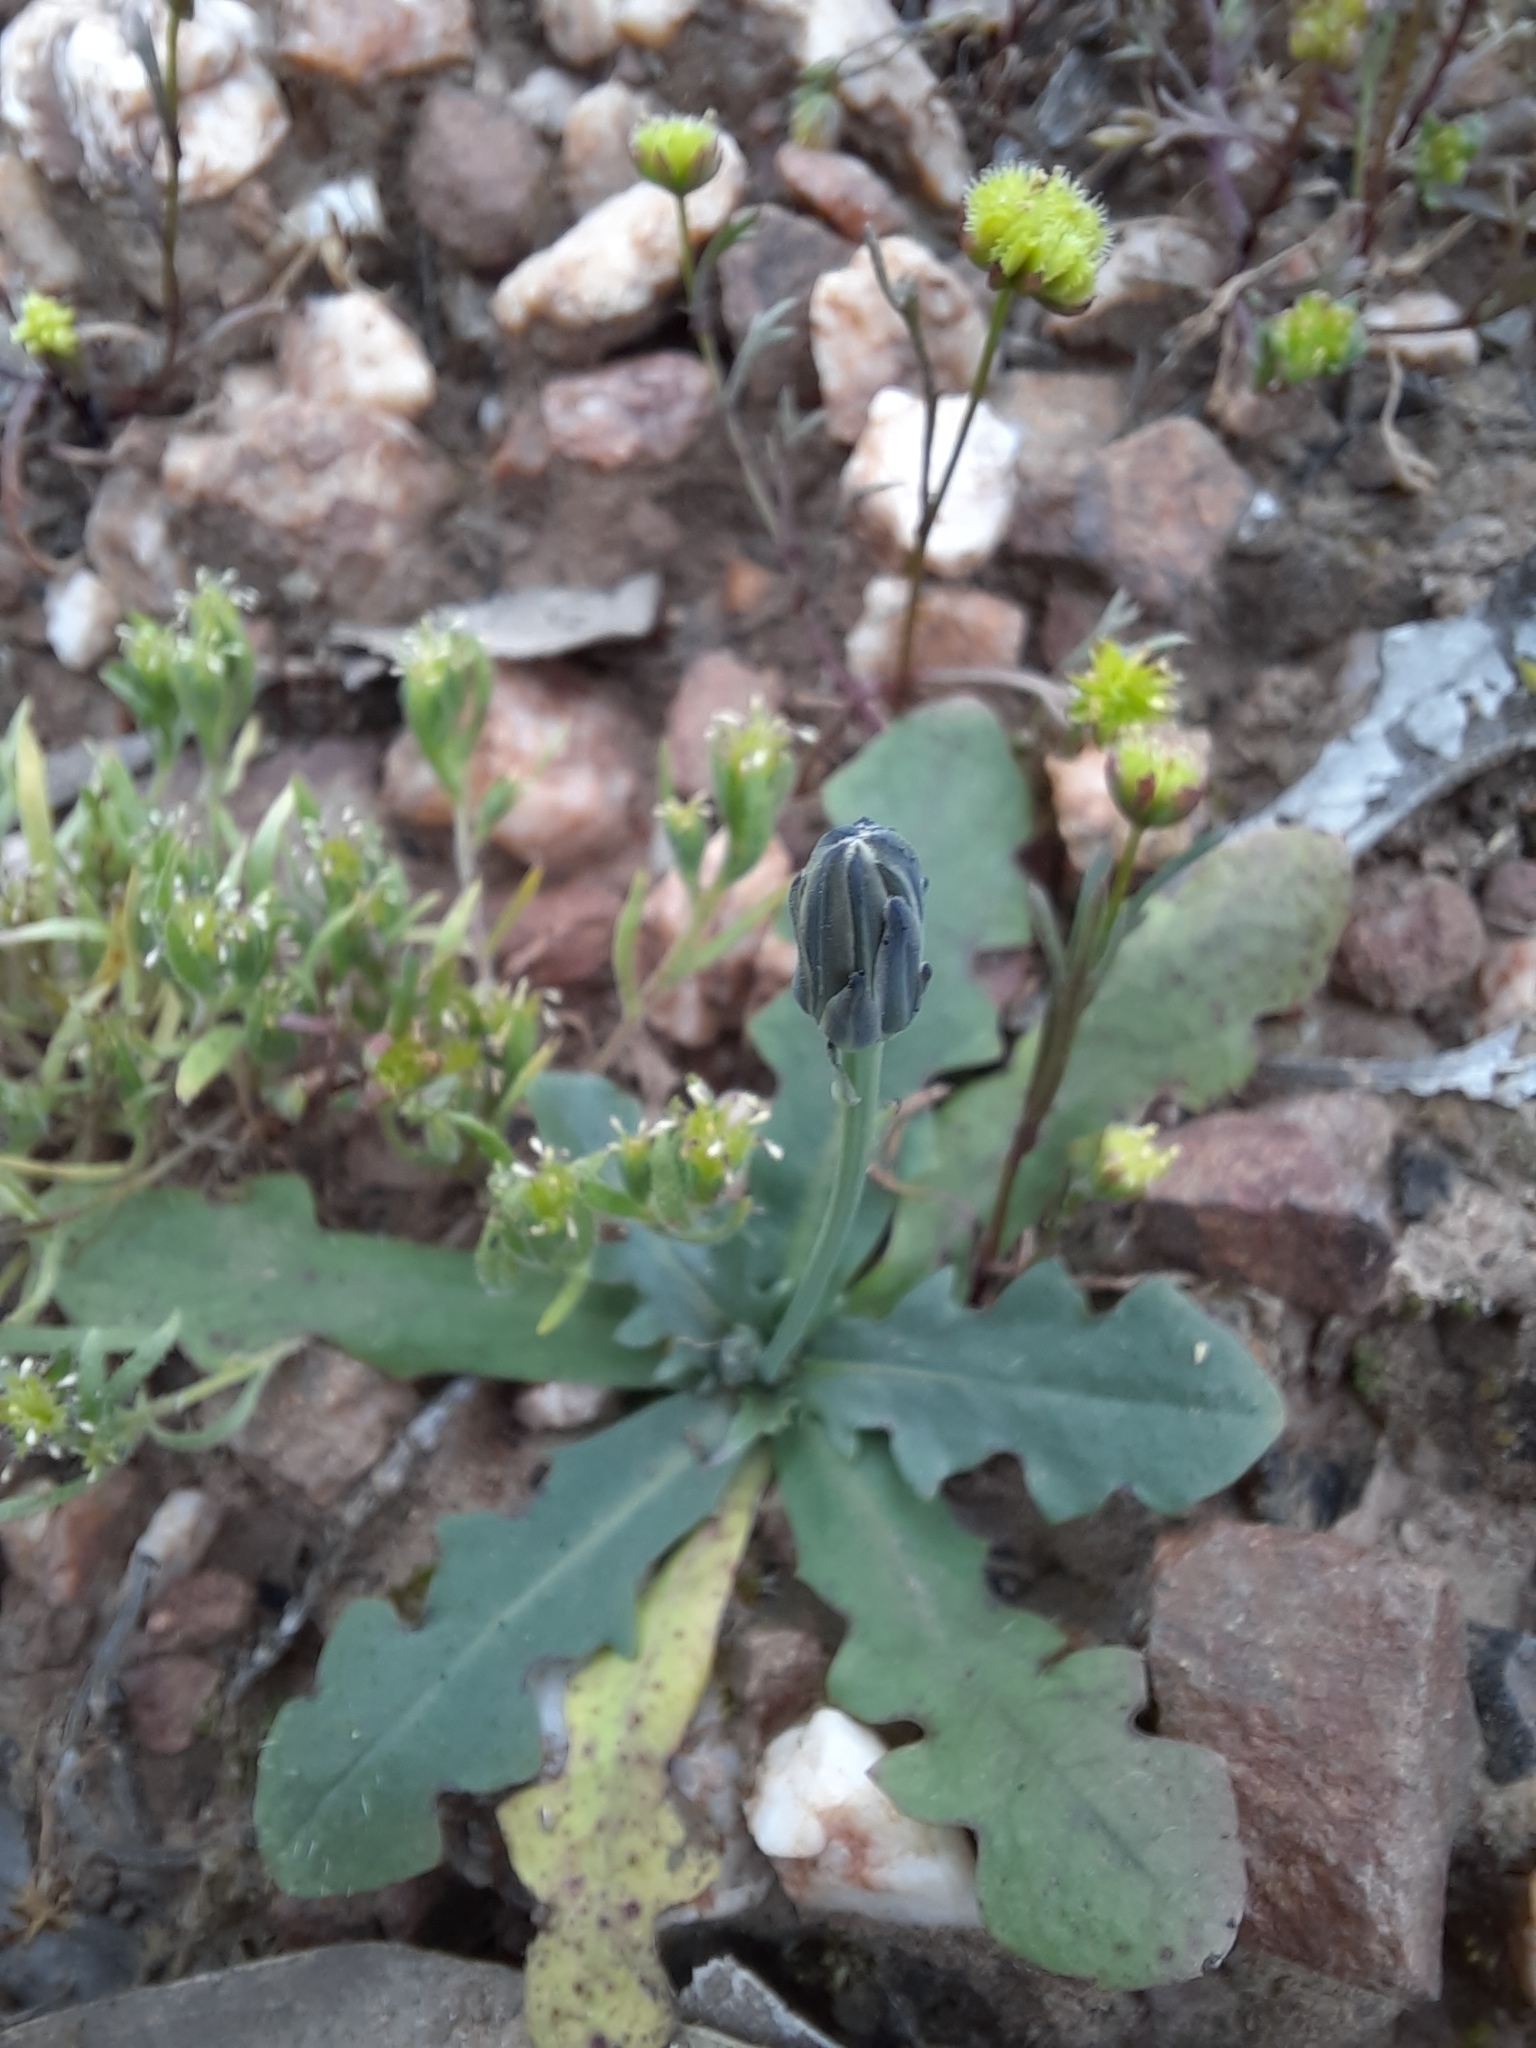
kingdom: Plantae
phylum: Tracheophyta
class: Magnoliopsida
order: Asterales
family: Asteraceae
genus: Hypochaeris
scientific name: Hypochaeris glabra
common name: Smooth catsear
